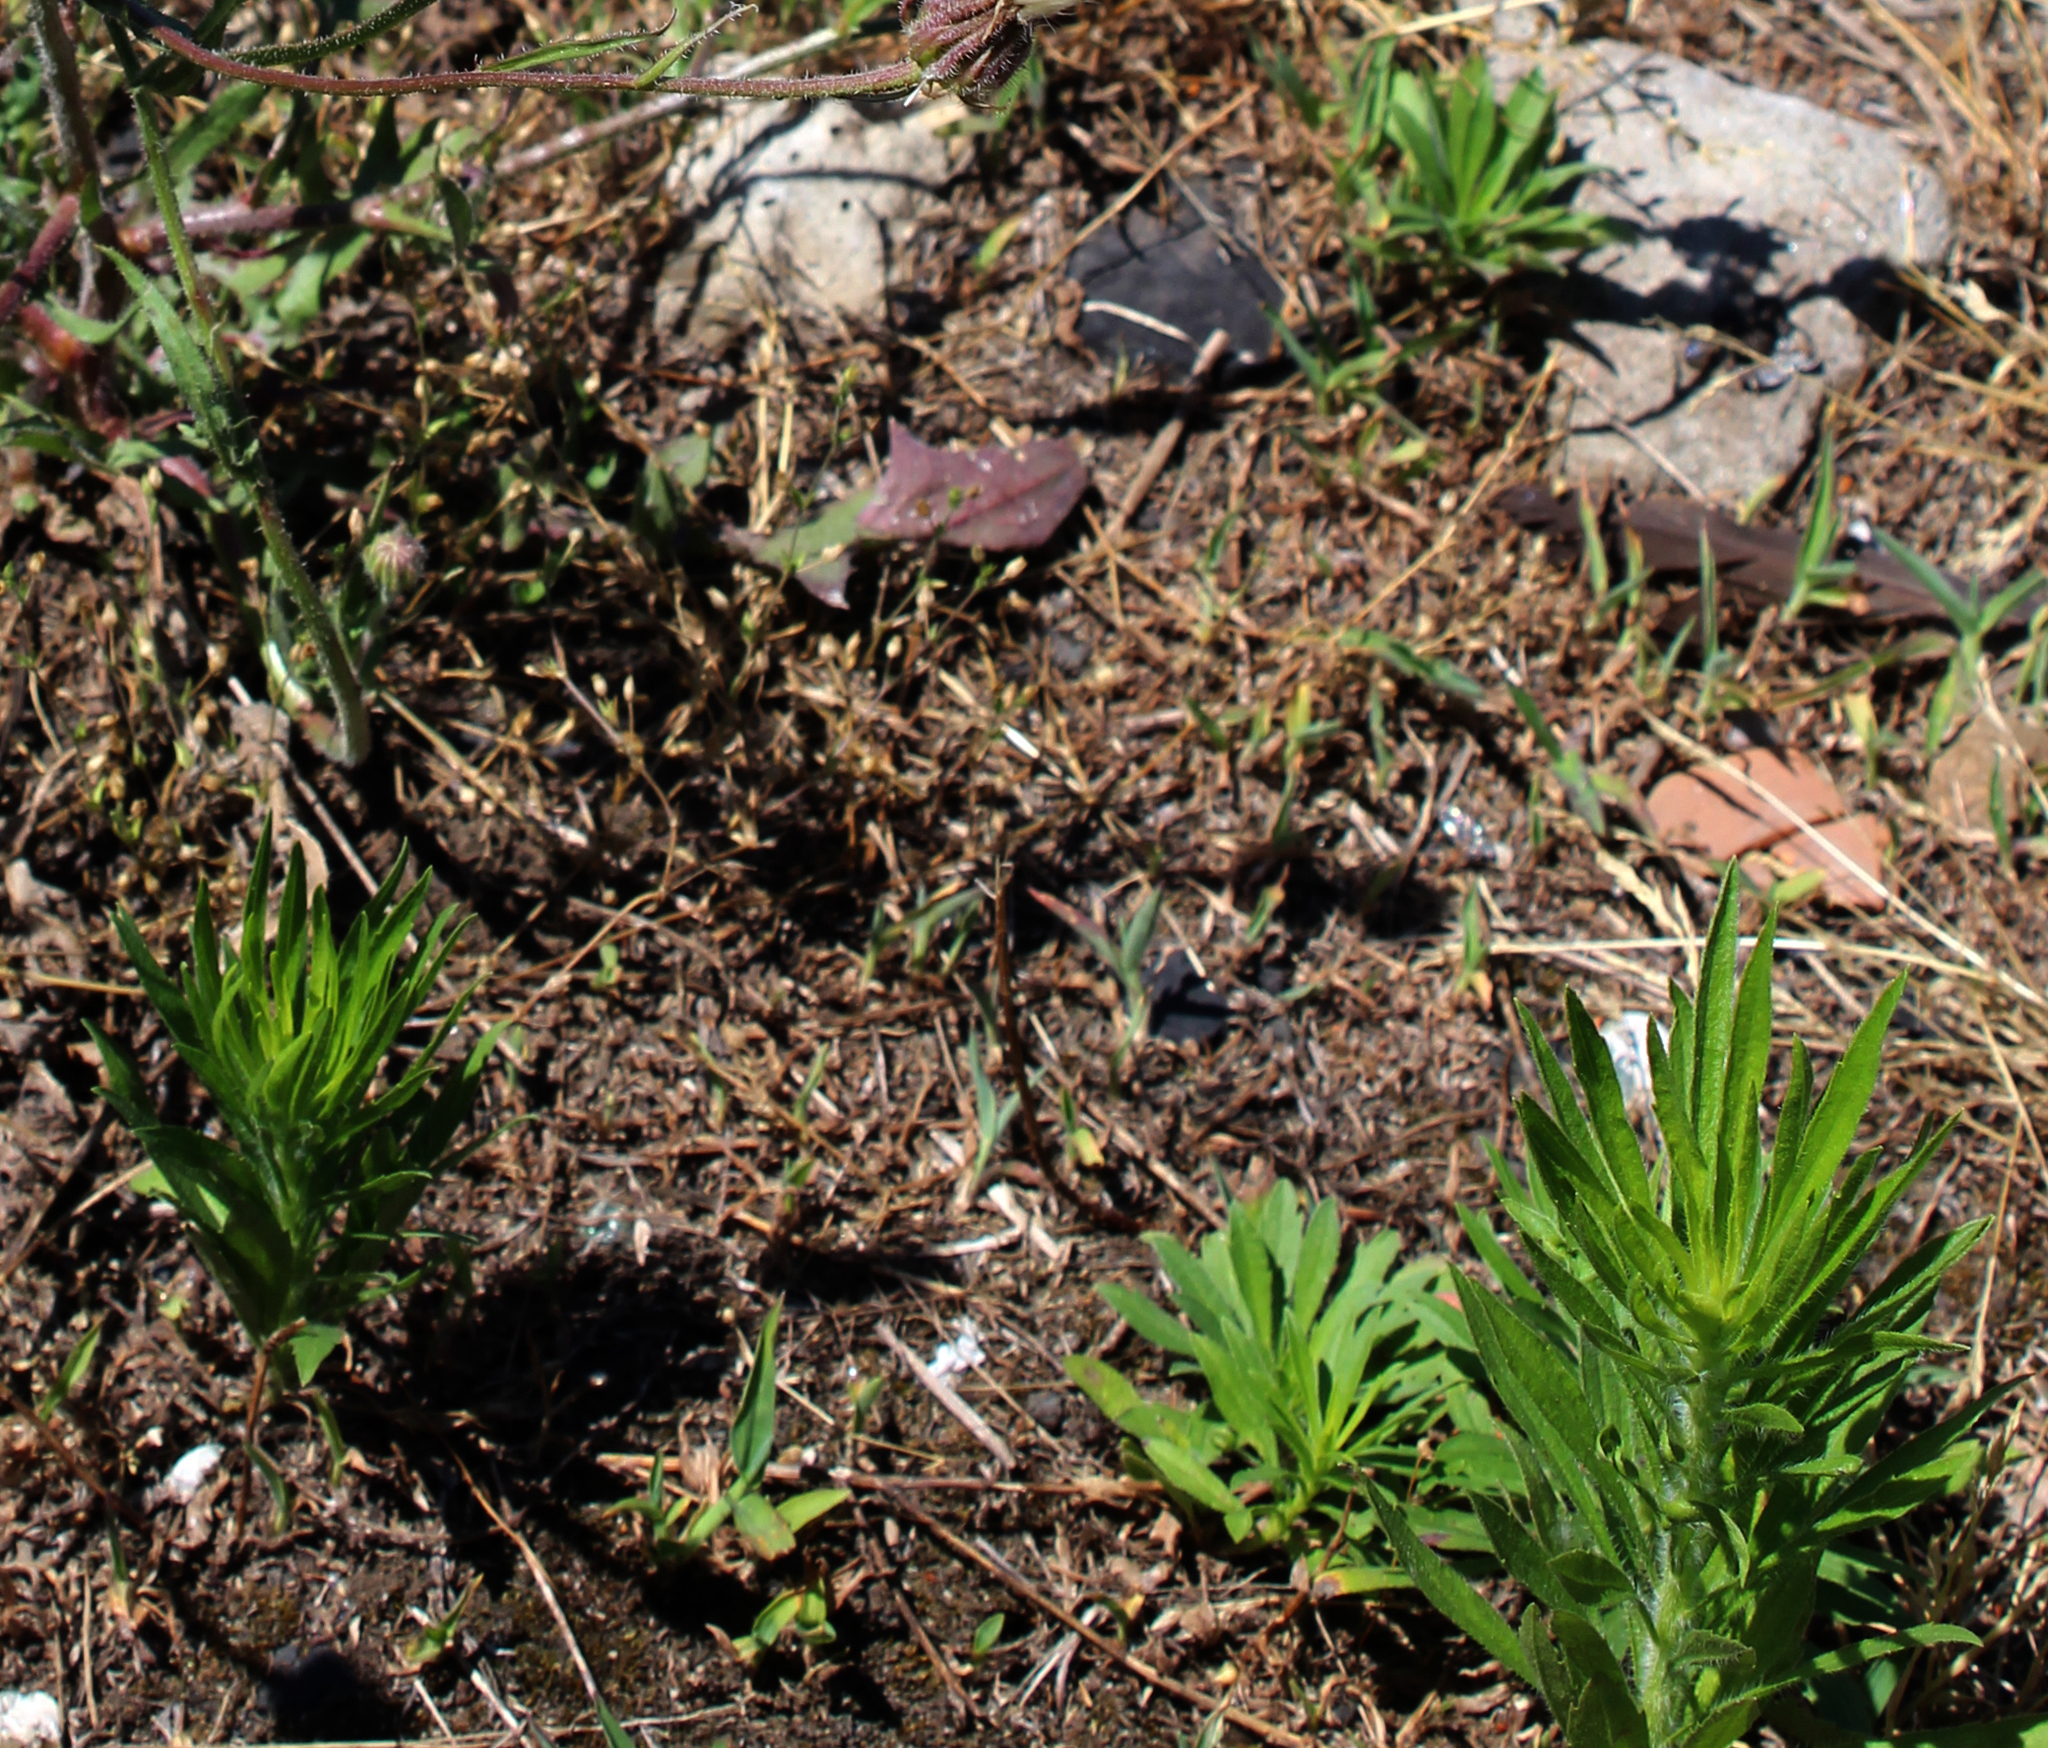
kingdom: Plantae
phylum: Tracheophyta
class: Magnoliopsida
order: Asterales
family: Asteraceae
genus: Erigeron
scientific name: Erigeron canadensis
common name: Canadian fleabane
